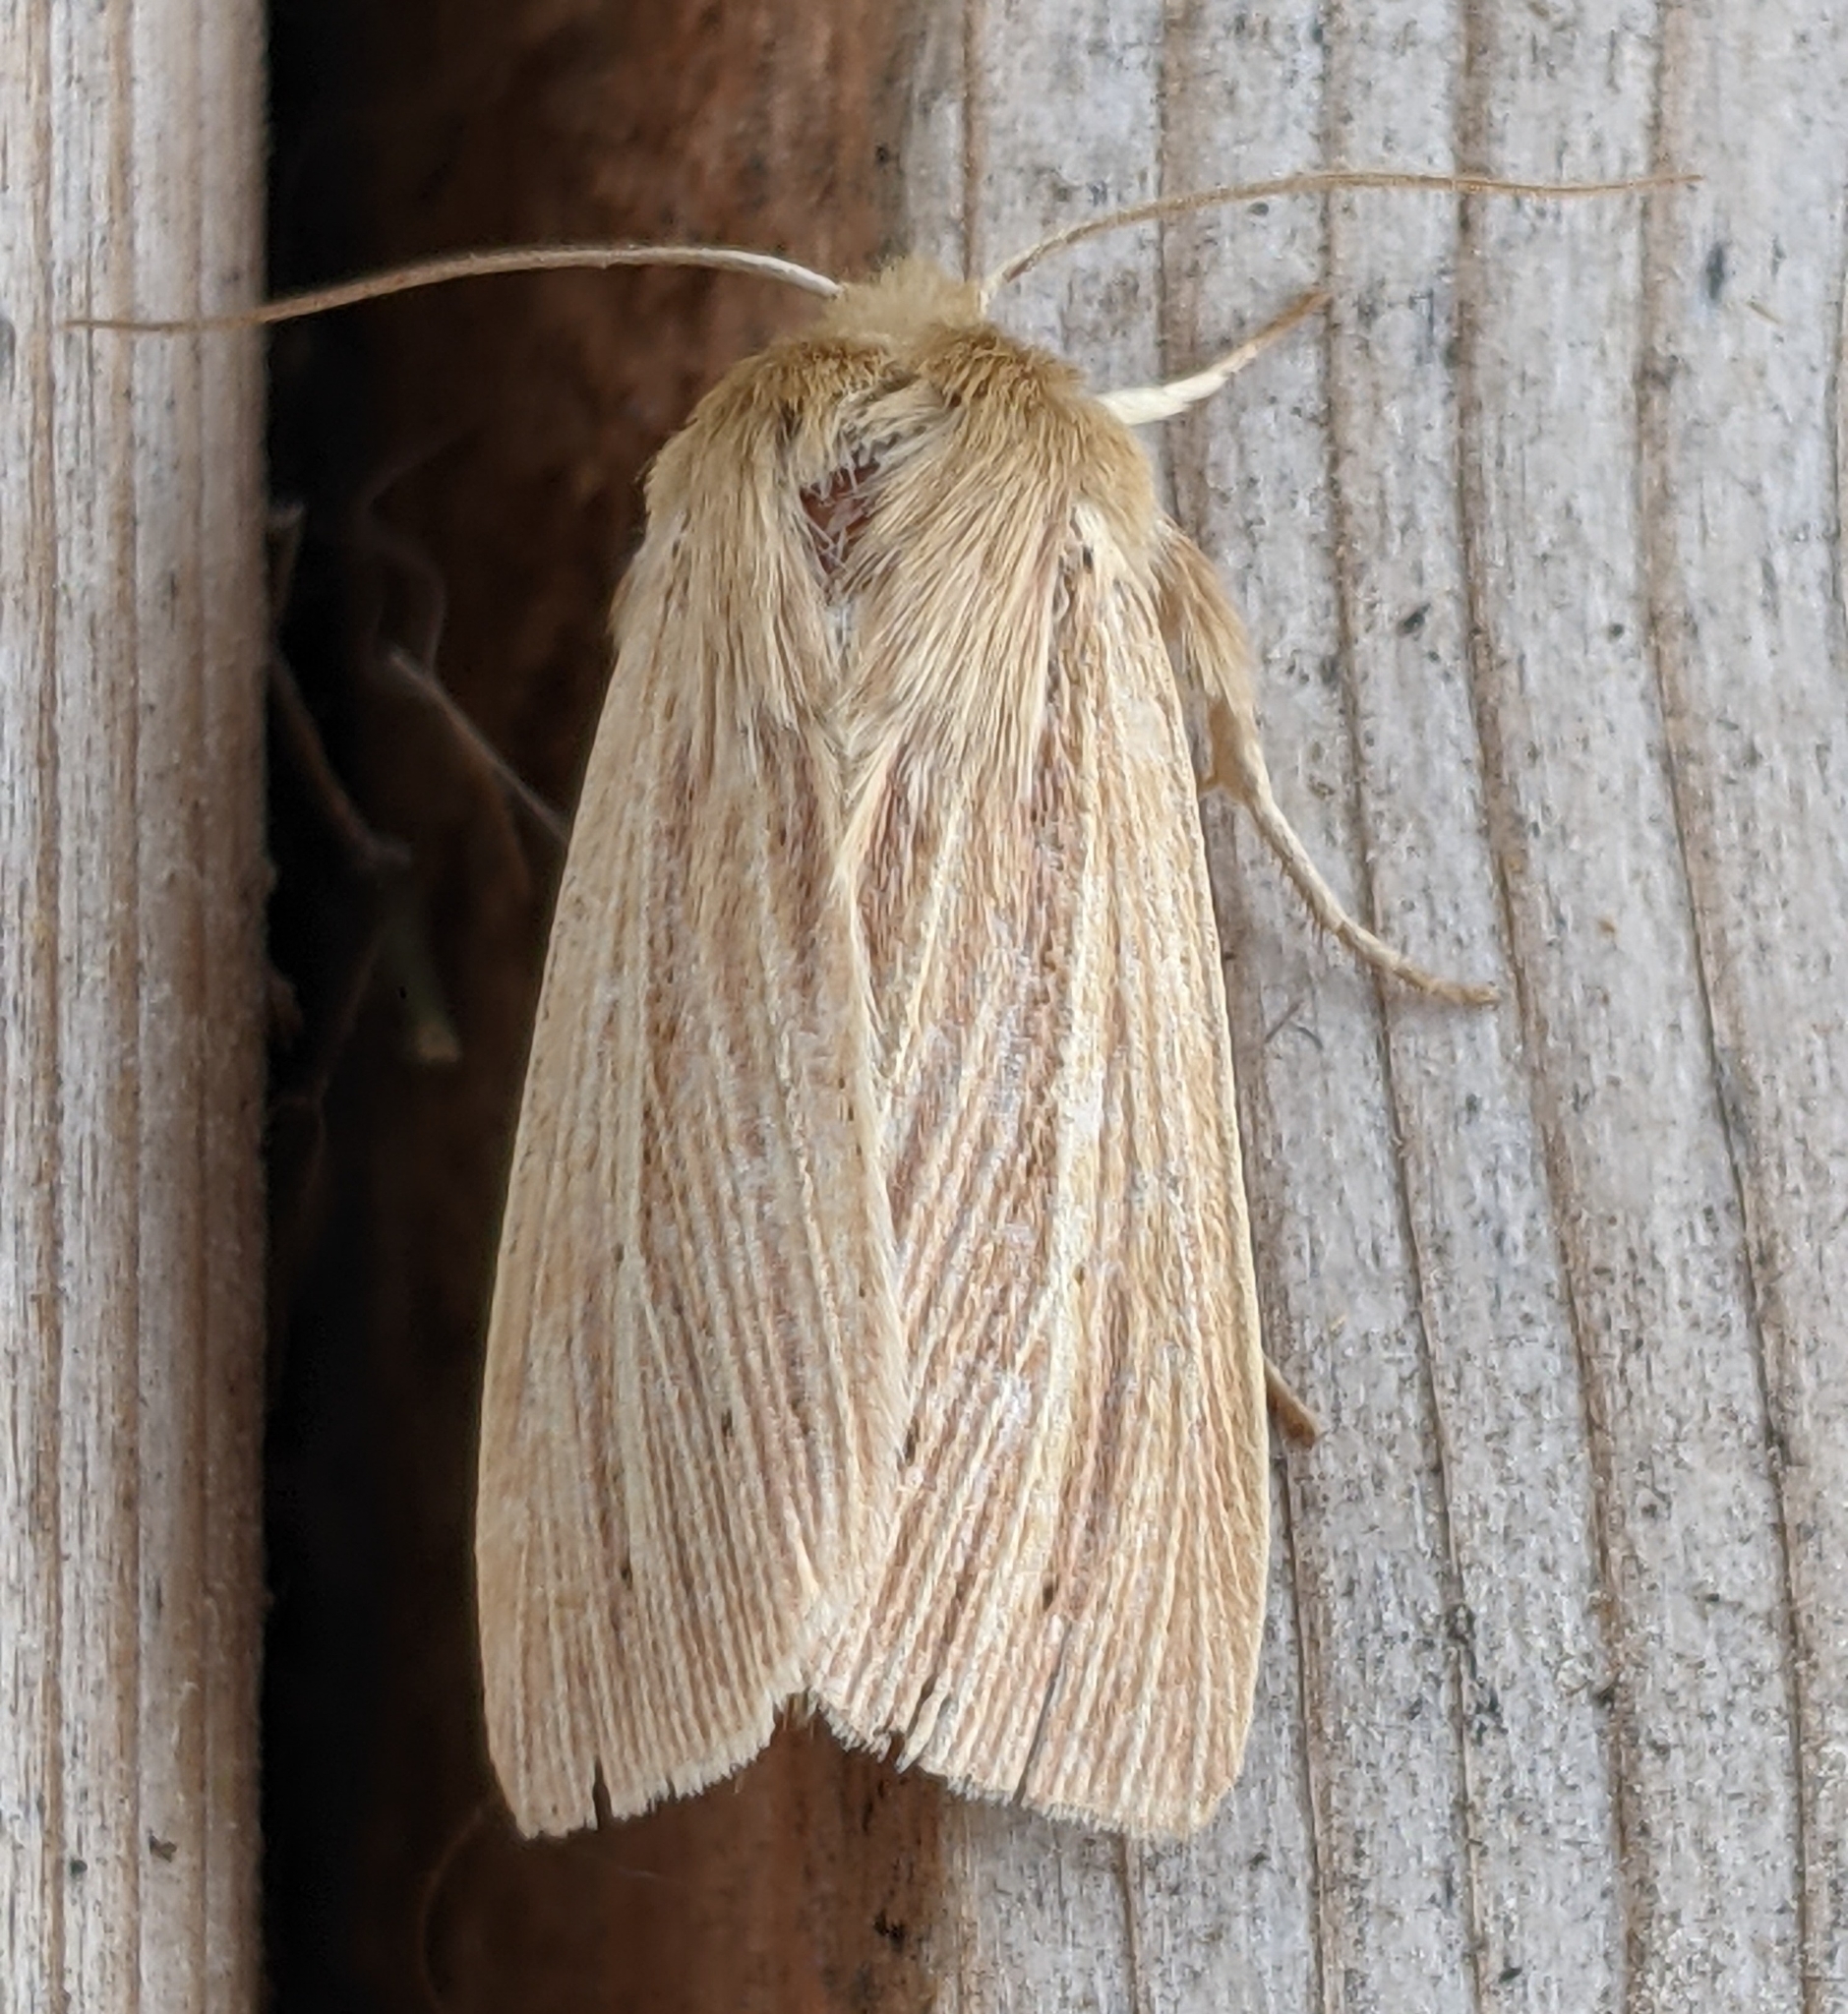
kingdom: Animalia
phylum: Arthropoda
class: Insecta
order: Lepidoptera
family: Noctuidae
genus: Mythimna
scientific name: Mythimna oxygala
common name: Lesser wainscot
